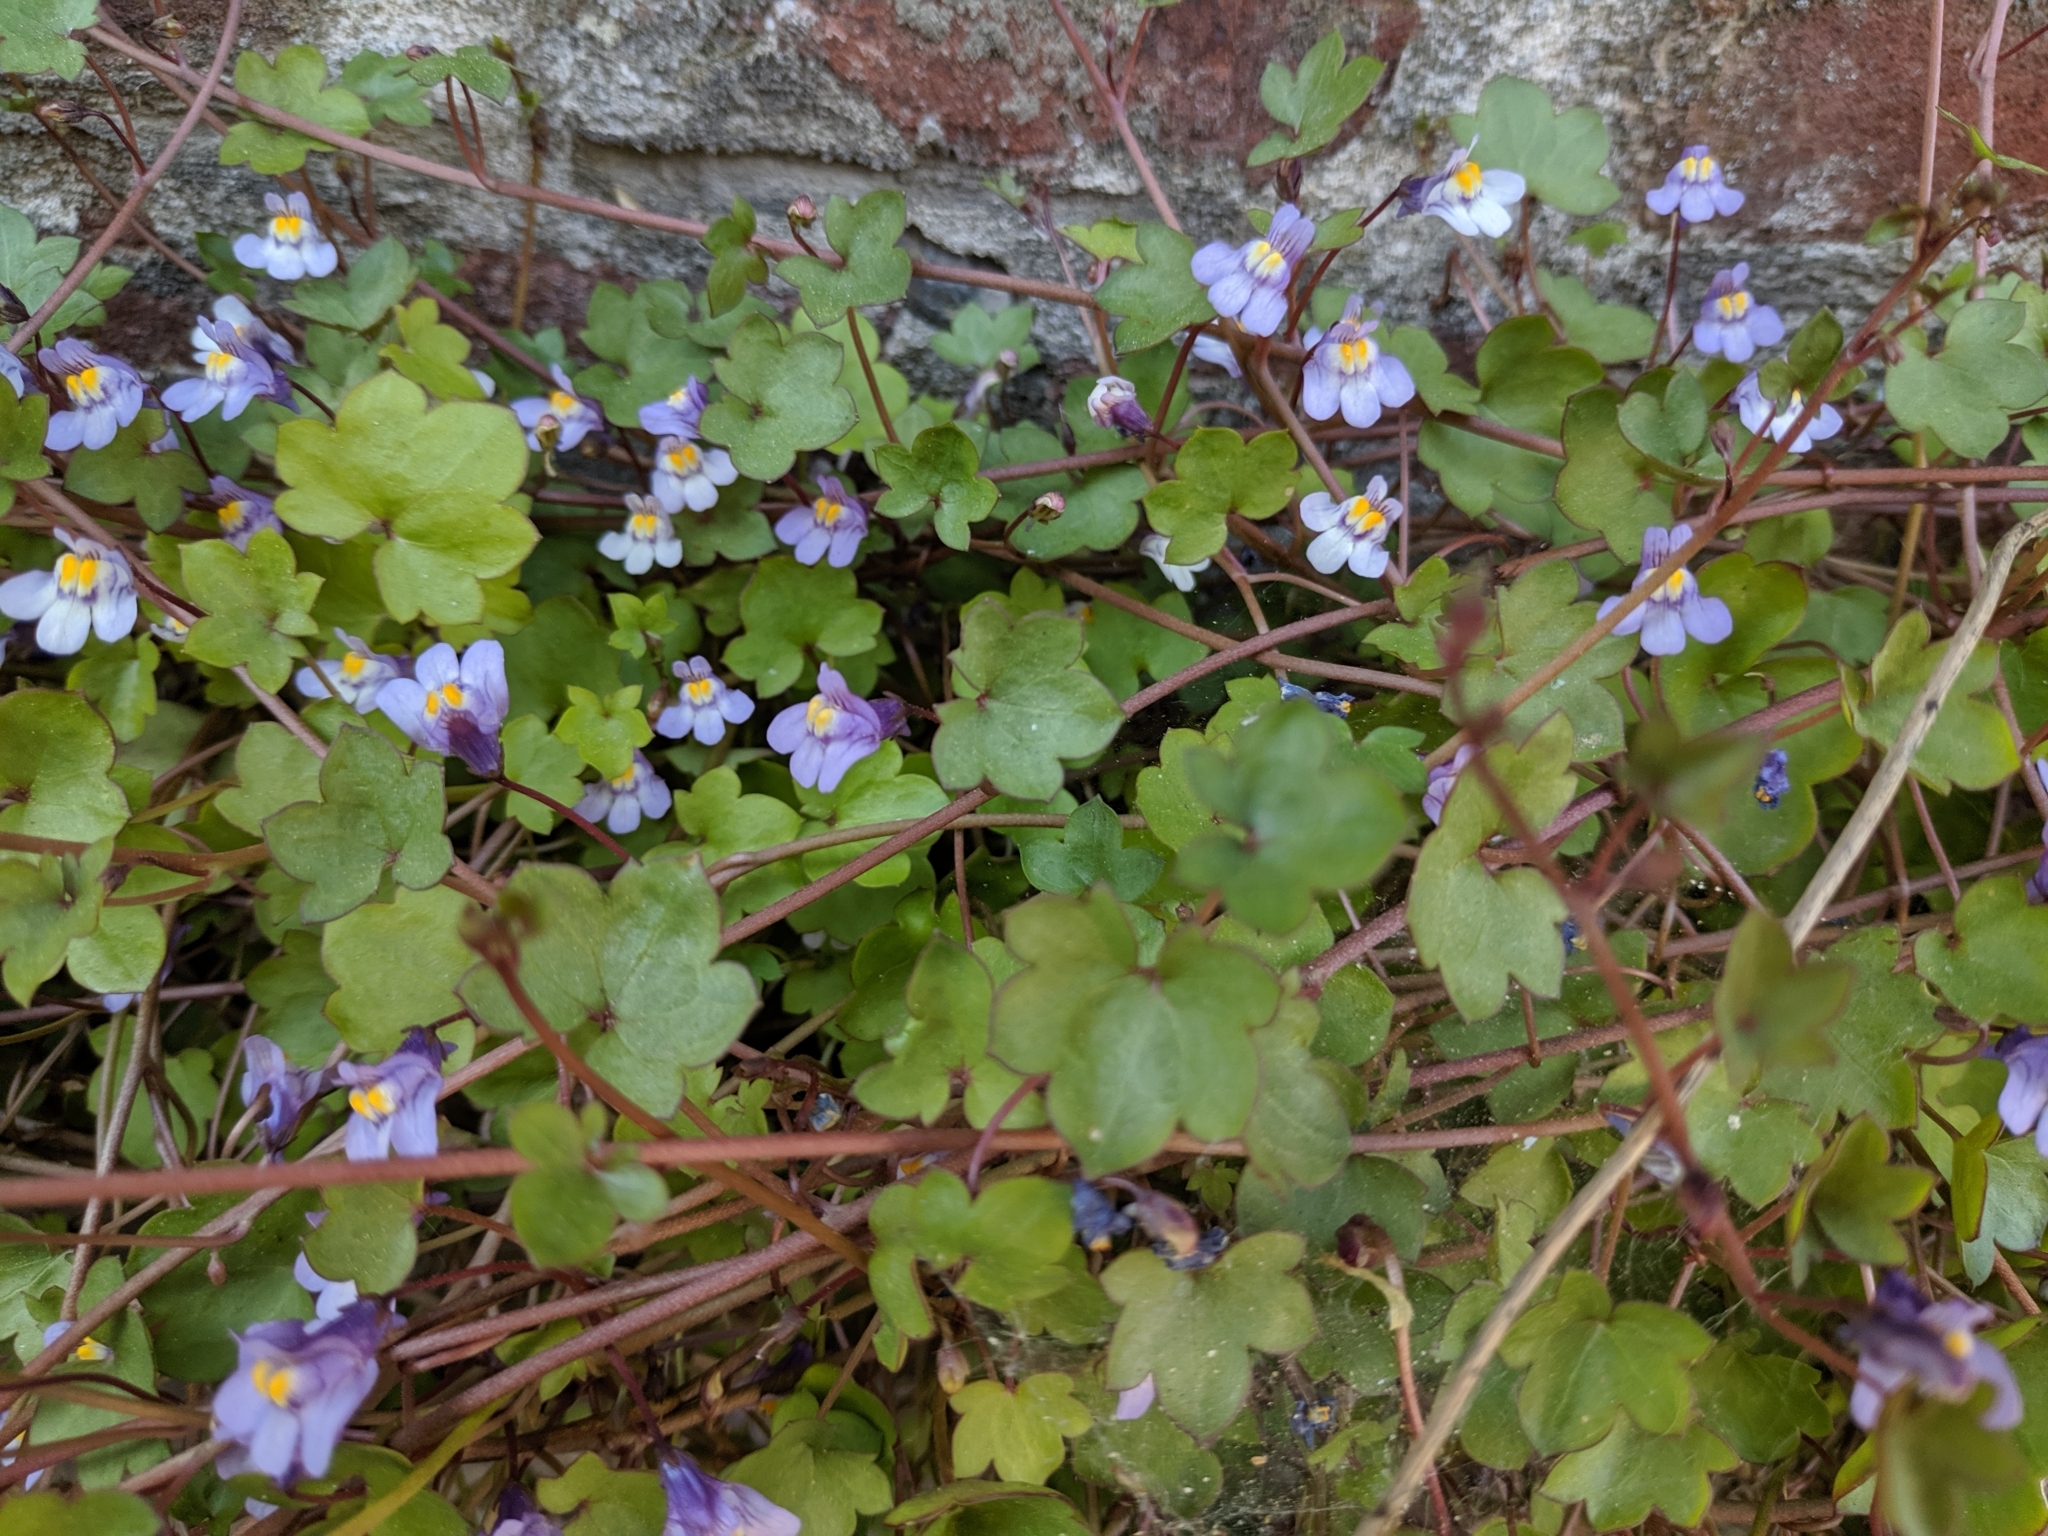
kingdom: Plantae
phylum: Tracheophyta
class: Magnoliopsida
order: Lamiales
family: Plantaginaceae
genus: Cymbalaria
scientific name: Cymbalaria muralis
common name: Ivy-leaved toadflax
